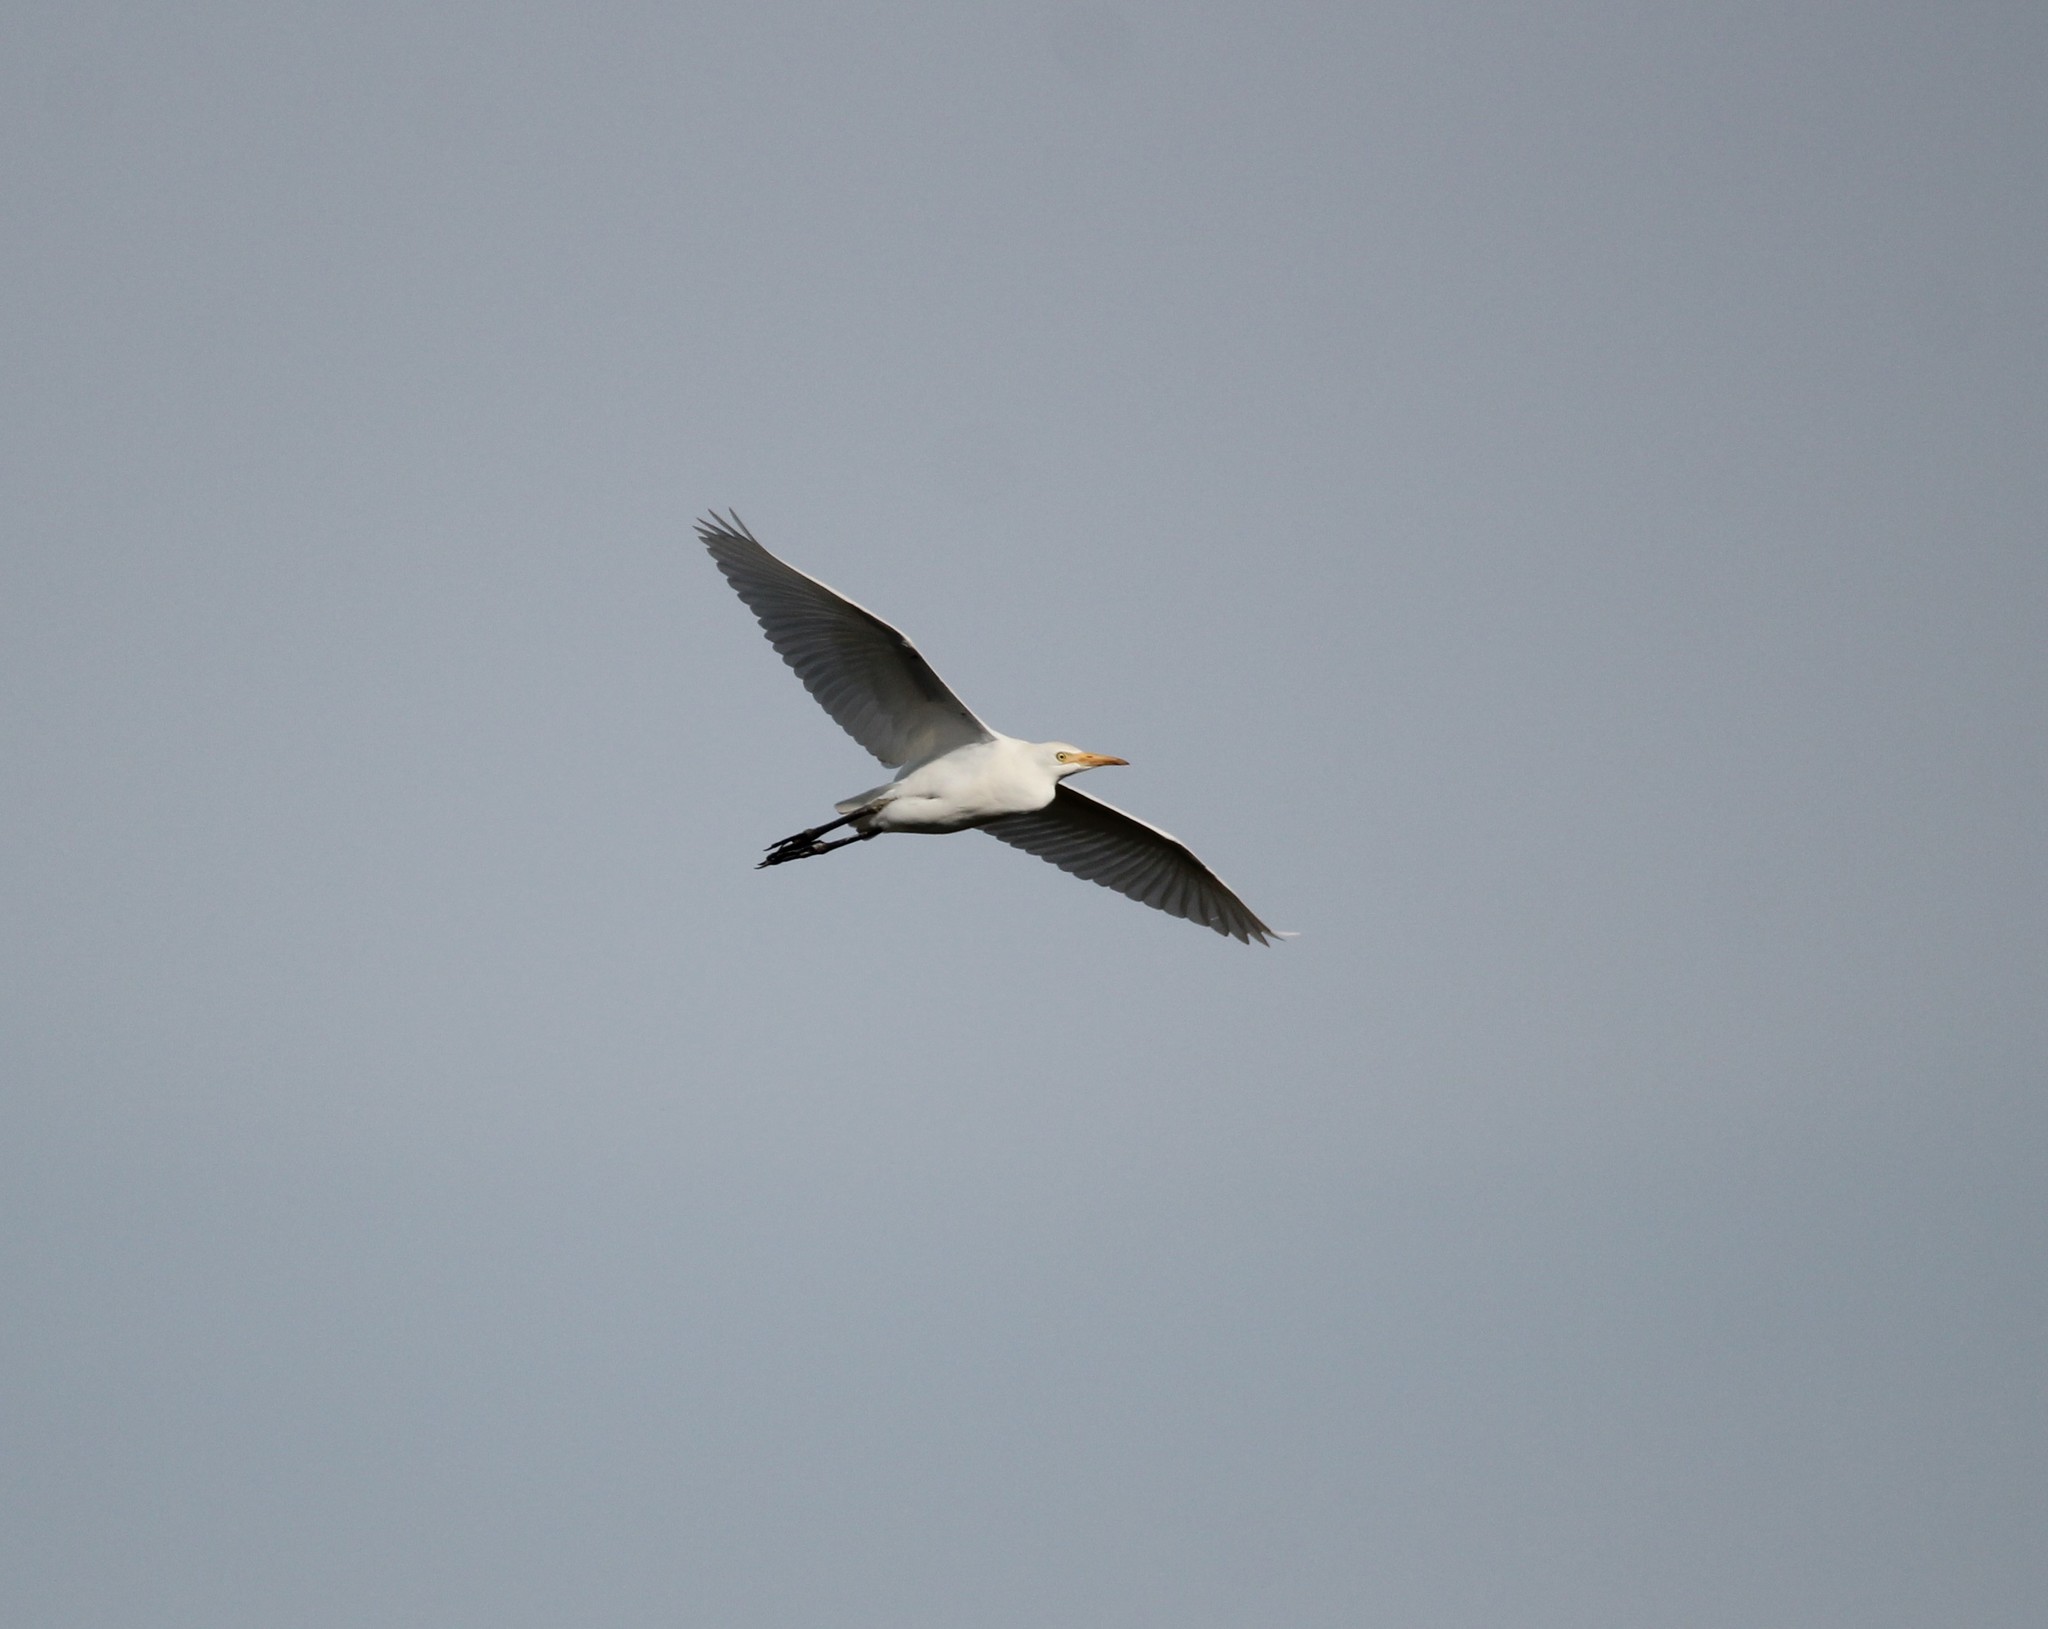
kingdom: Animalia
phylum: Chordata
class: Aves
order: Pelecaniformes
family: Ardeidae
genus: Bubulcus
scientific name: Bubulcus ibis
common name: Cattle egret
